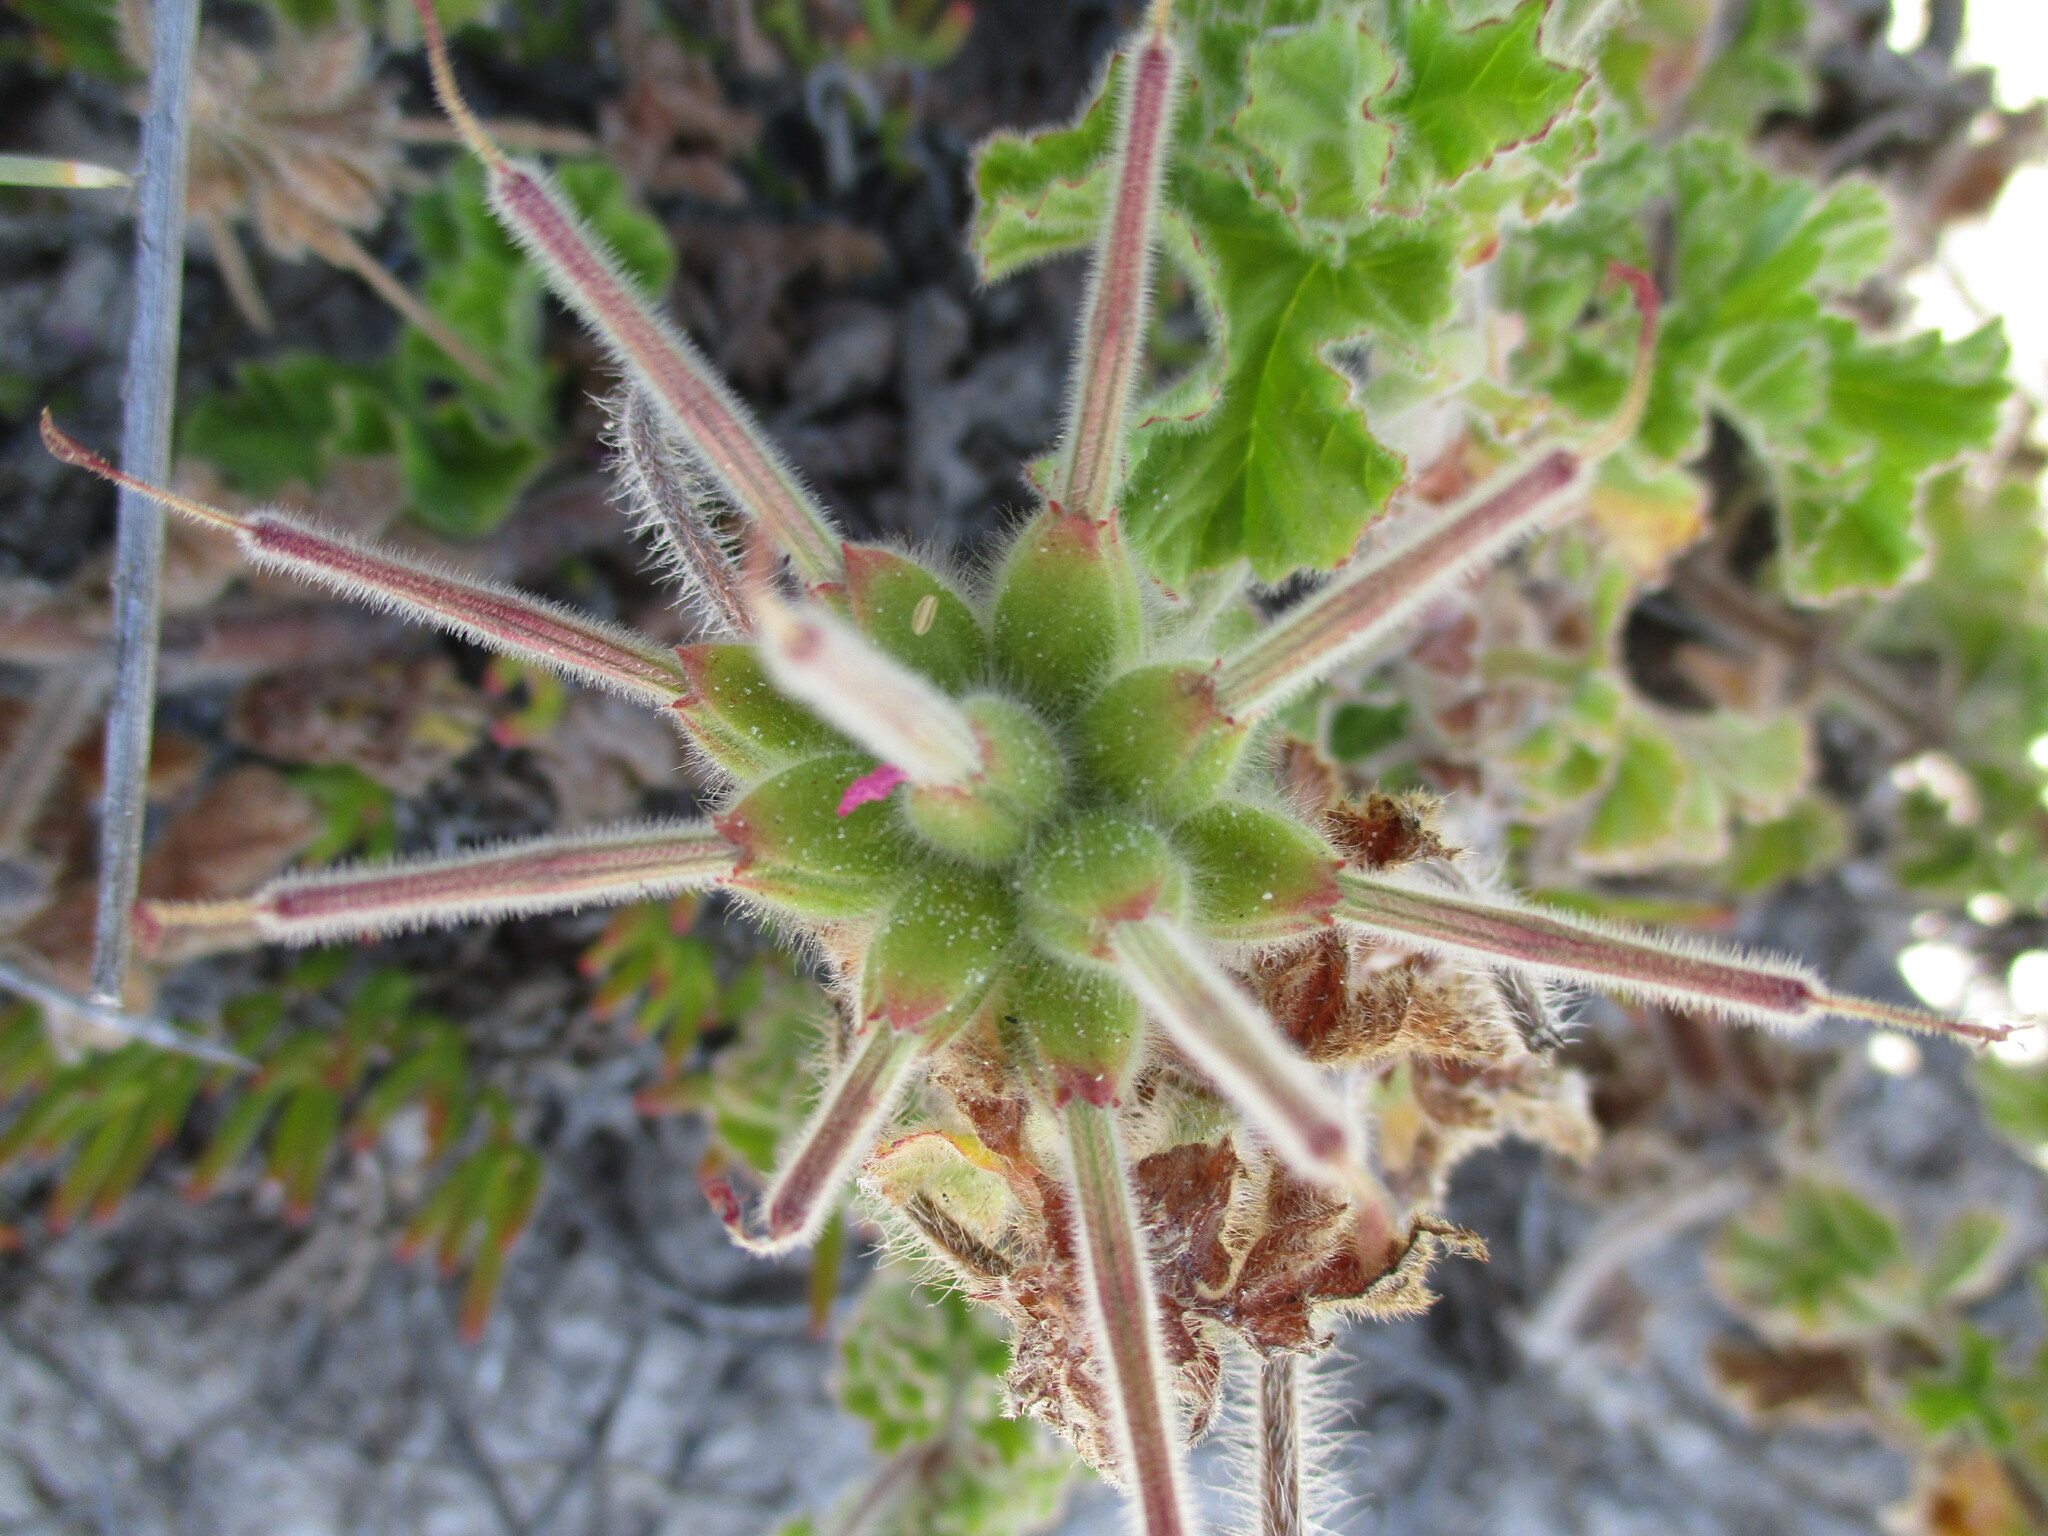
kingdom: Plantae
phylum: Tracheophyta
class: Magnoliopsida
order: Geraniales
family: Geraniaceae
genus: Pelargonium
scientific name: Pelargonium capitatum
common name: Rose scented geranium
